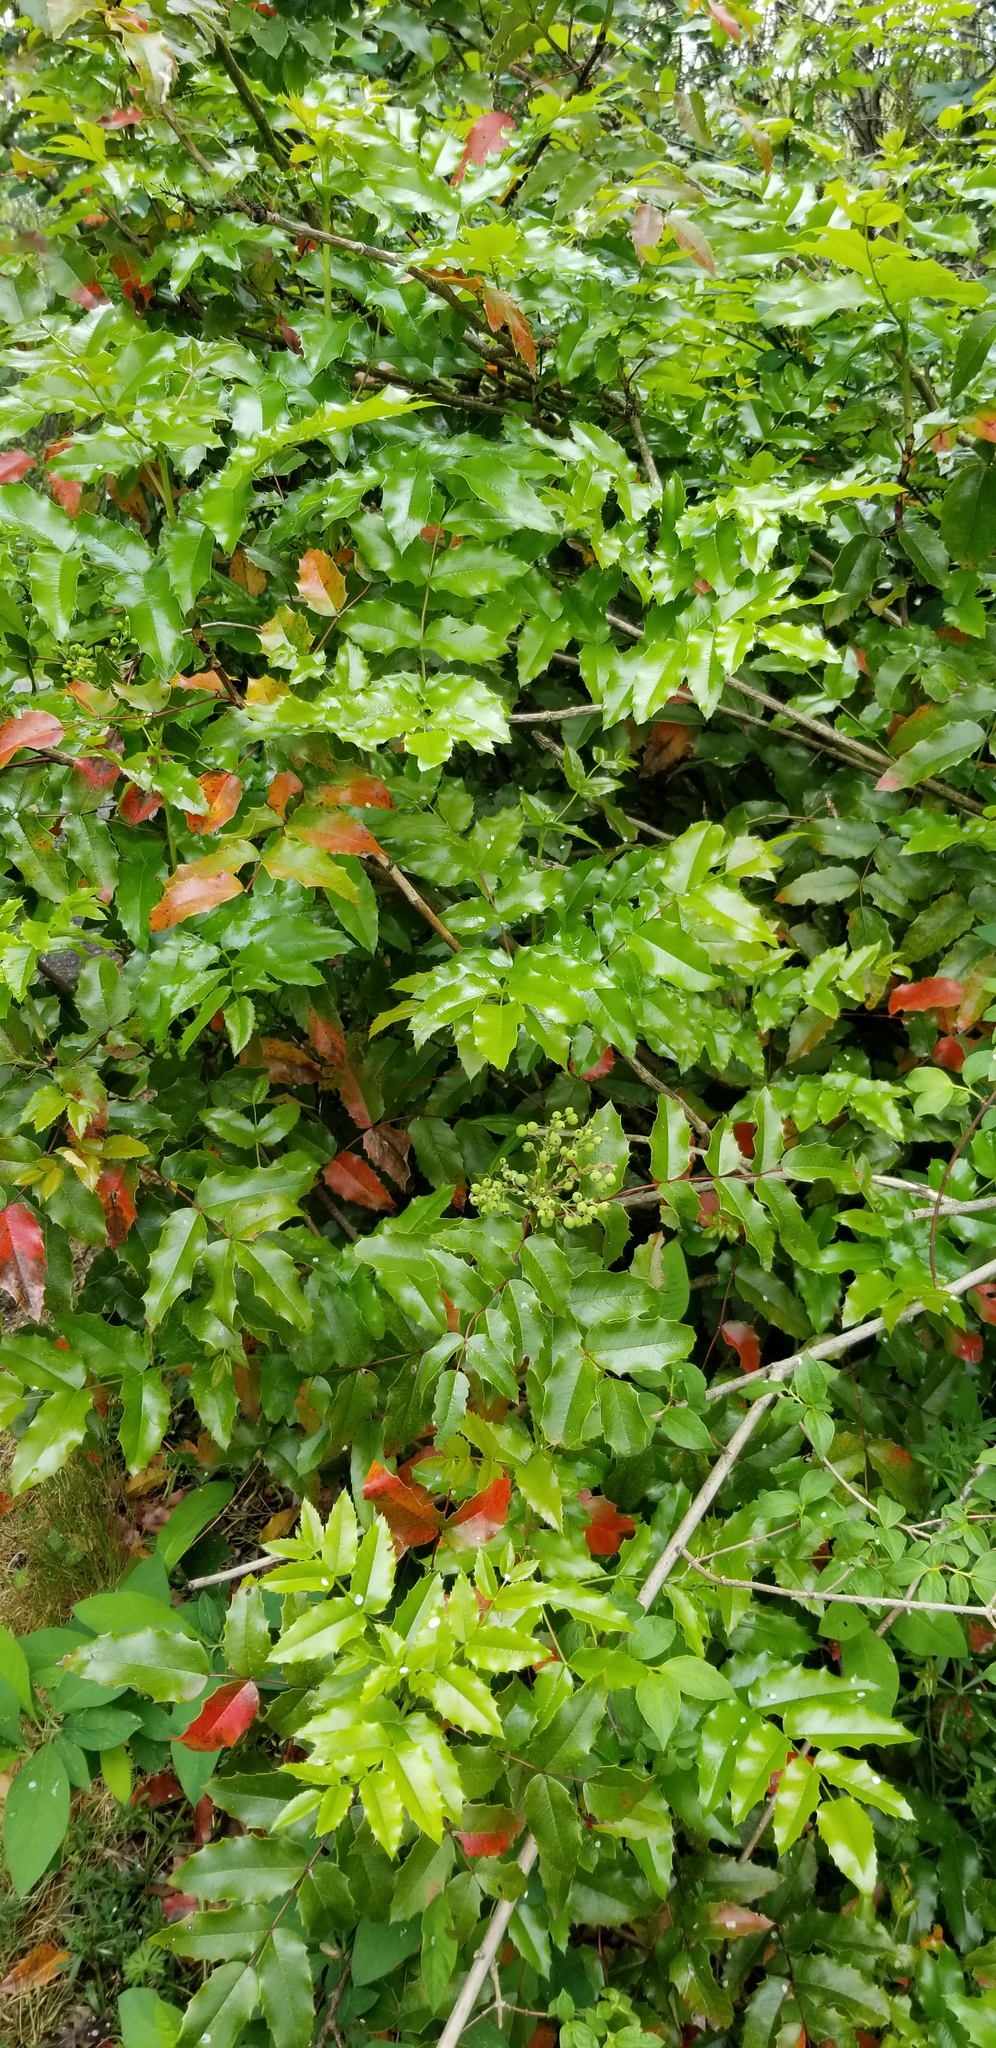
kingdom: Plantae
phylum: Tracheophyta
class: Magnoliopsida
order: Ranunculales
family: Berberidaceae
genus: Mahonia
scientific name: Mahonia aquifolium
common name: Oregon-grape
